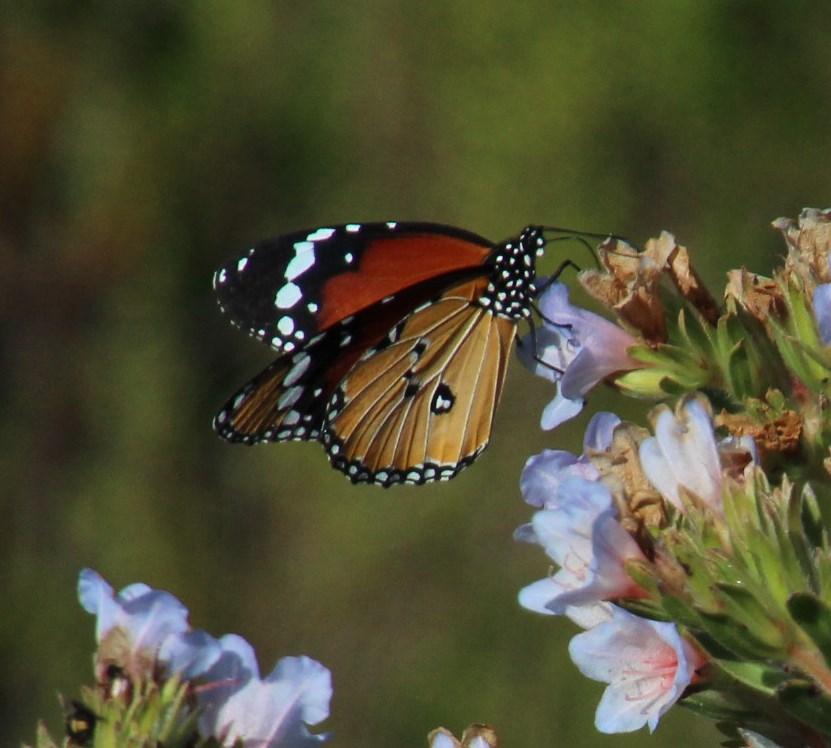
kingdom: Animalia
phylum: Arthropoda
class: Insecta
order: Lepidoptera
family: Nymphalidae
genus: Danaus
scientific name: Danaus chrysippus
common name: Plain tiger
